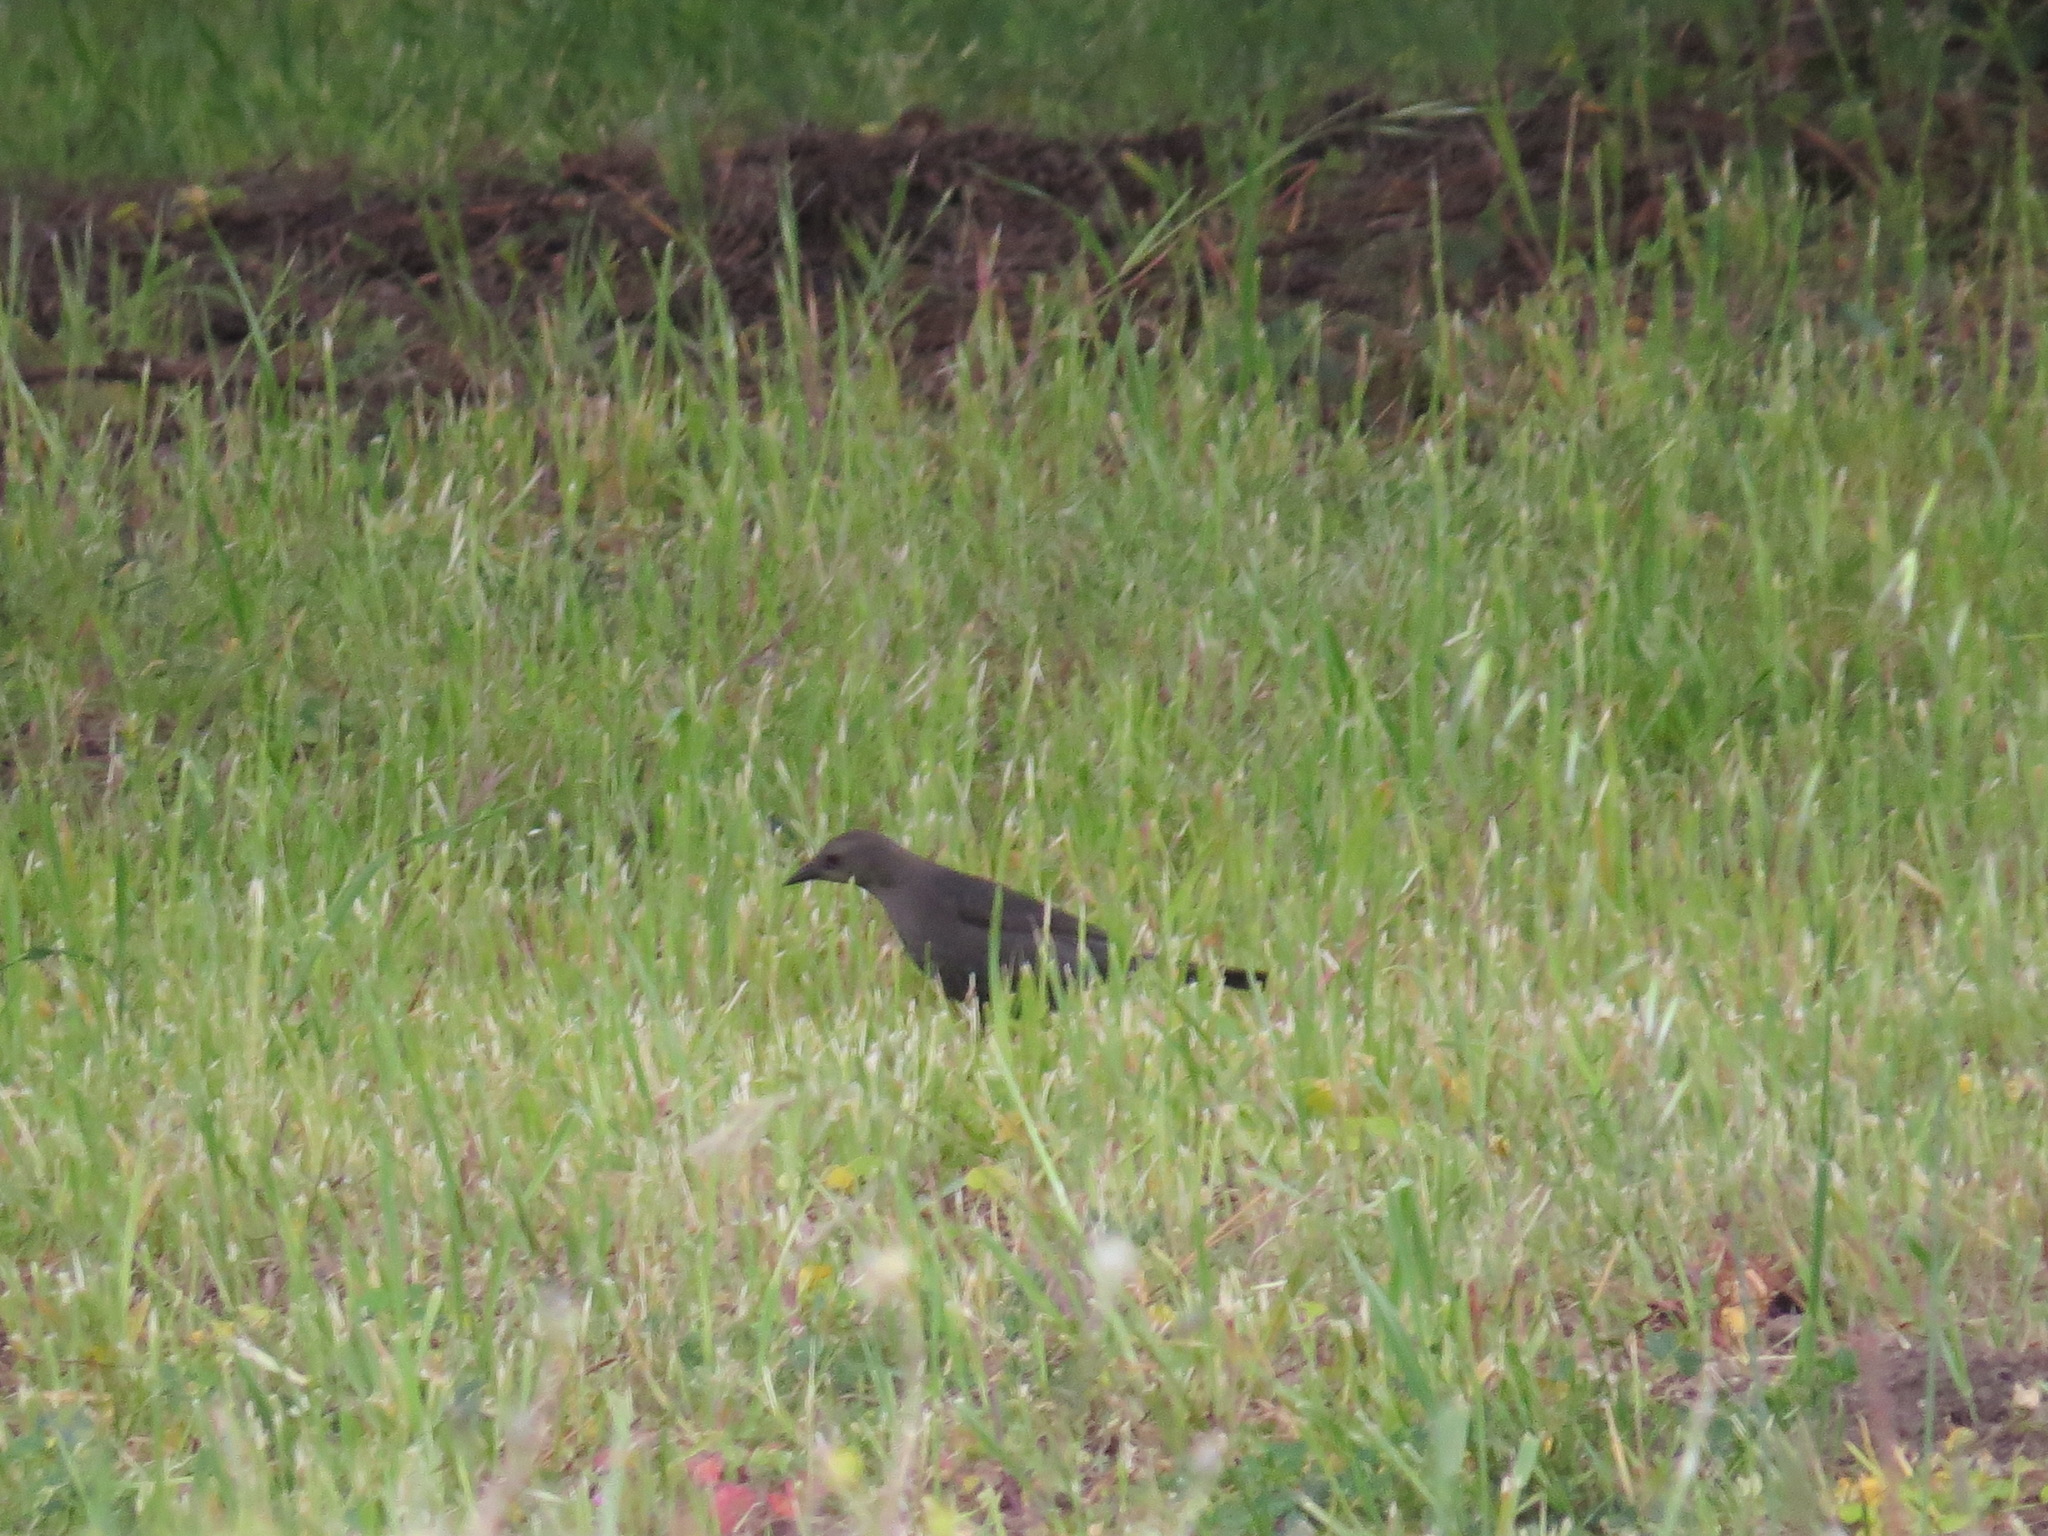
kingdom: Animalia
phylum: Chordata
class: Aves
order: Passeriformes
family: Icteridae
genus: Euphagus
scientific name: Euphagus cyanocephalus
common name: Brewer's blackbird
